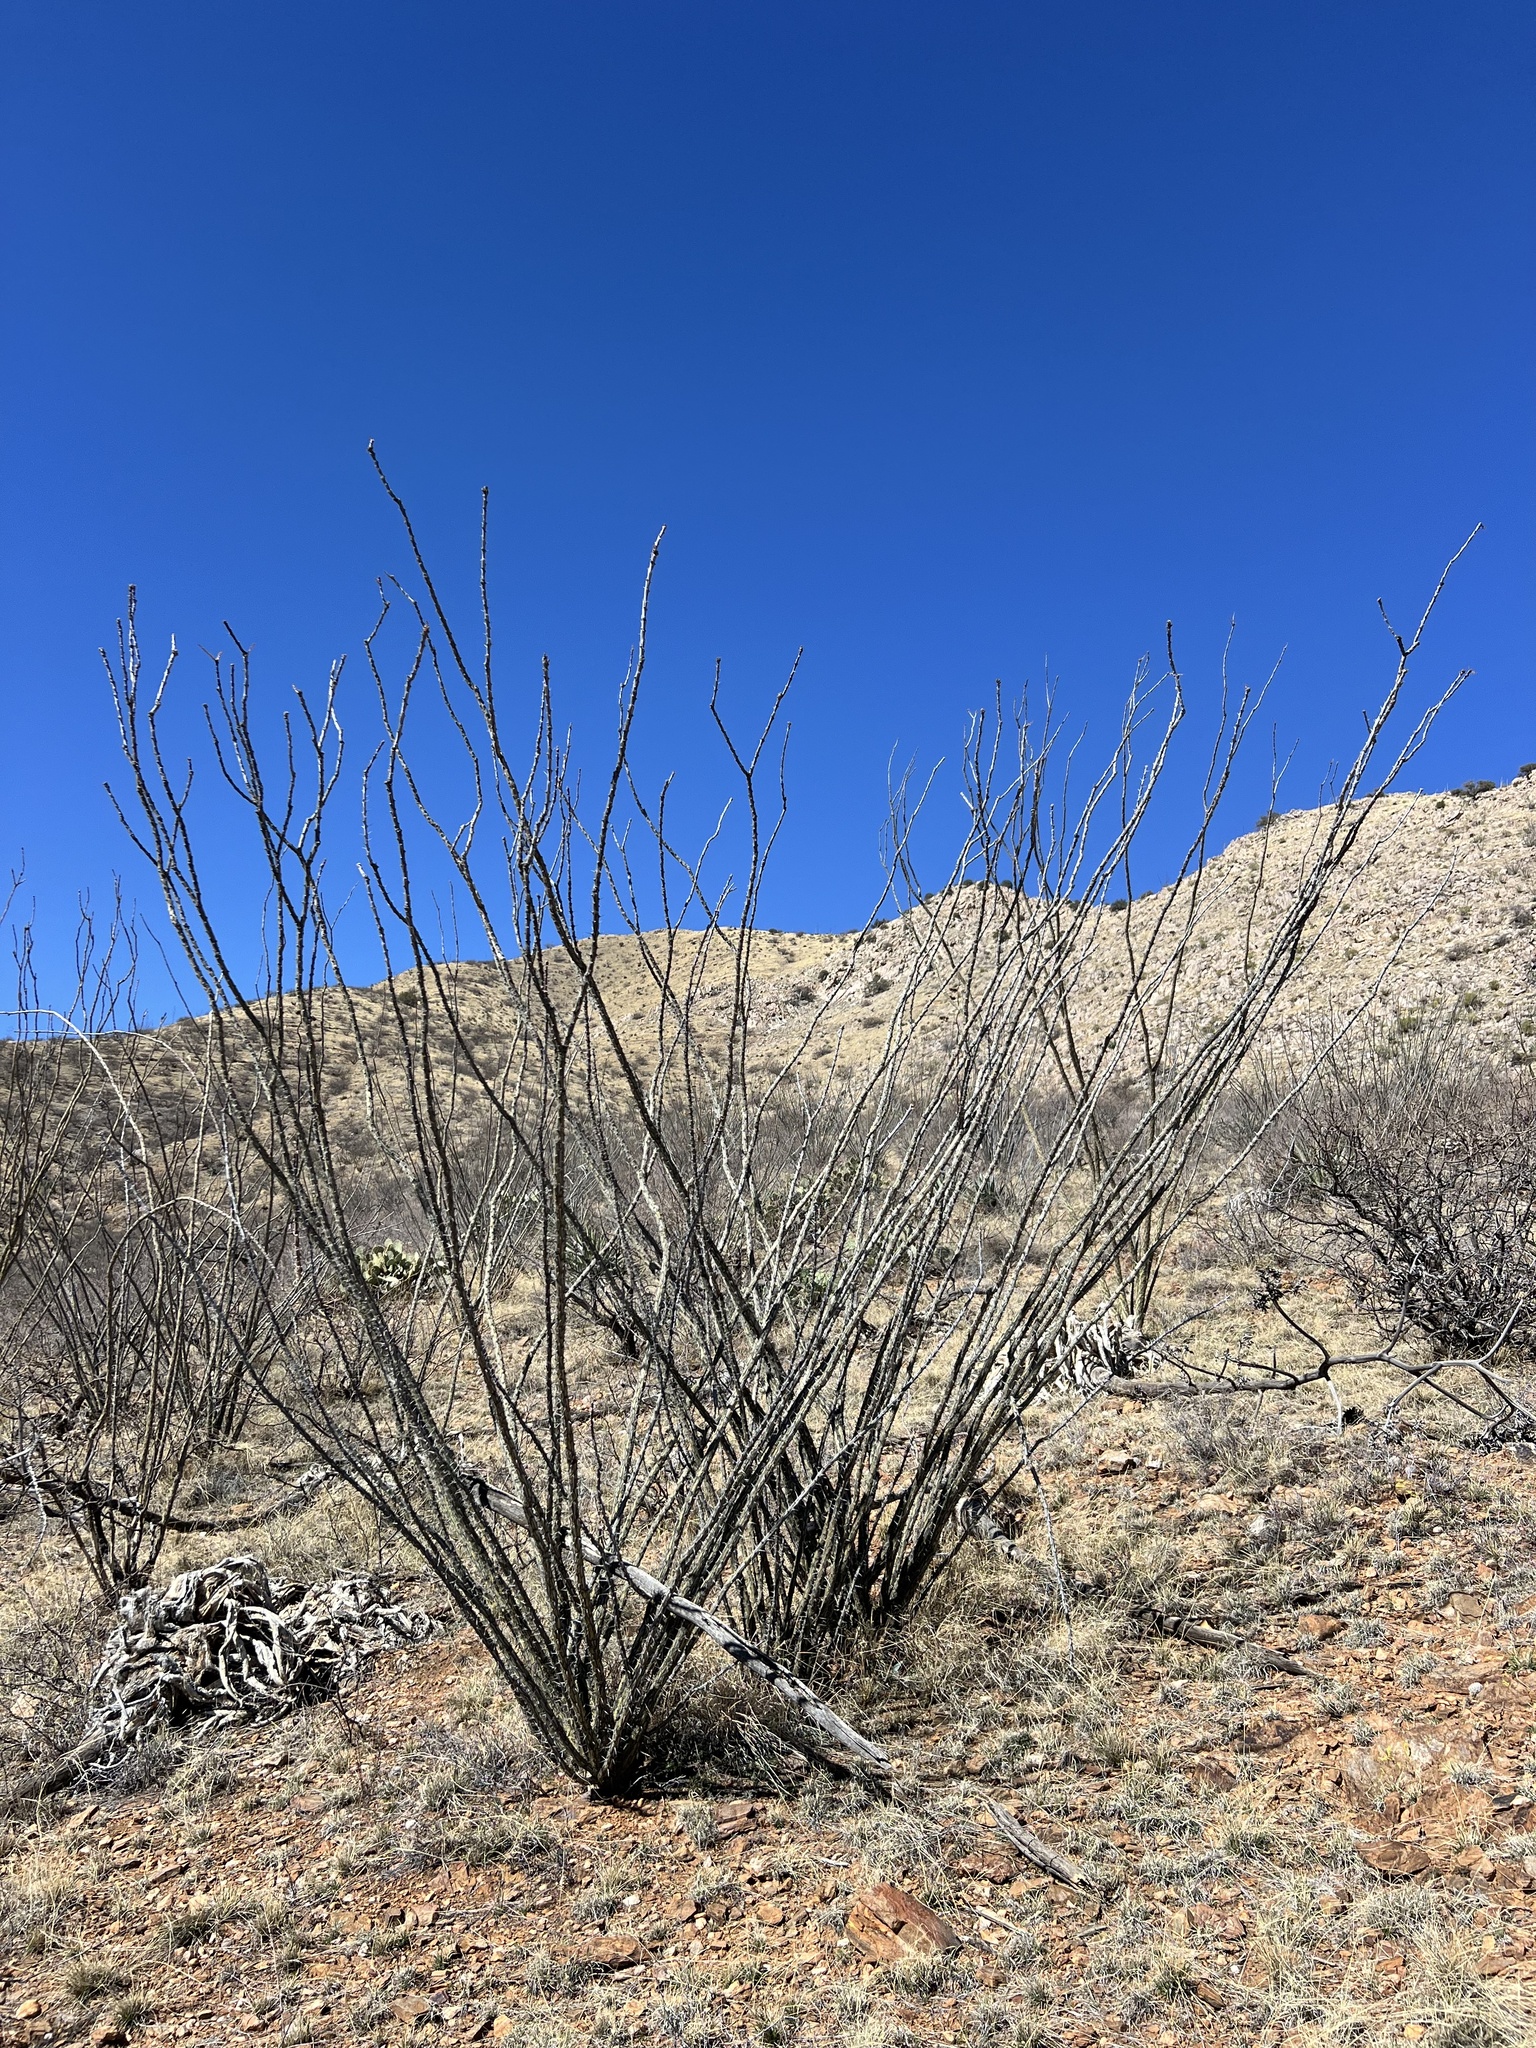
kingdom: Plantae
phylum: Tracheophyta
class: Magnoliopsida
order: Ericales
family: Fouquieriaceae
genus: Fouquieria
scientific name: Fouquieria splendens
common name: Vine-cactus
